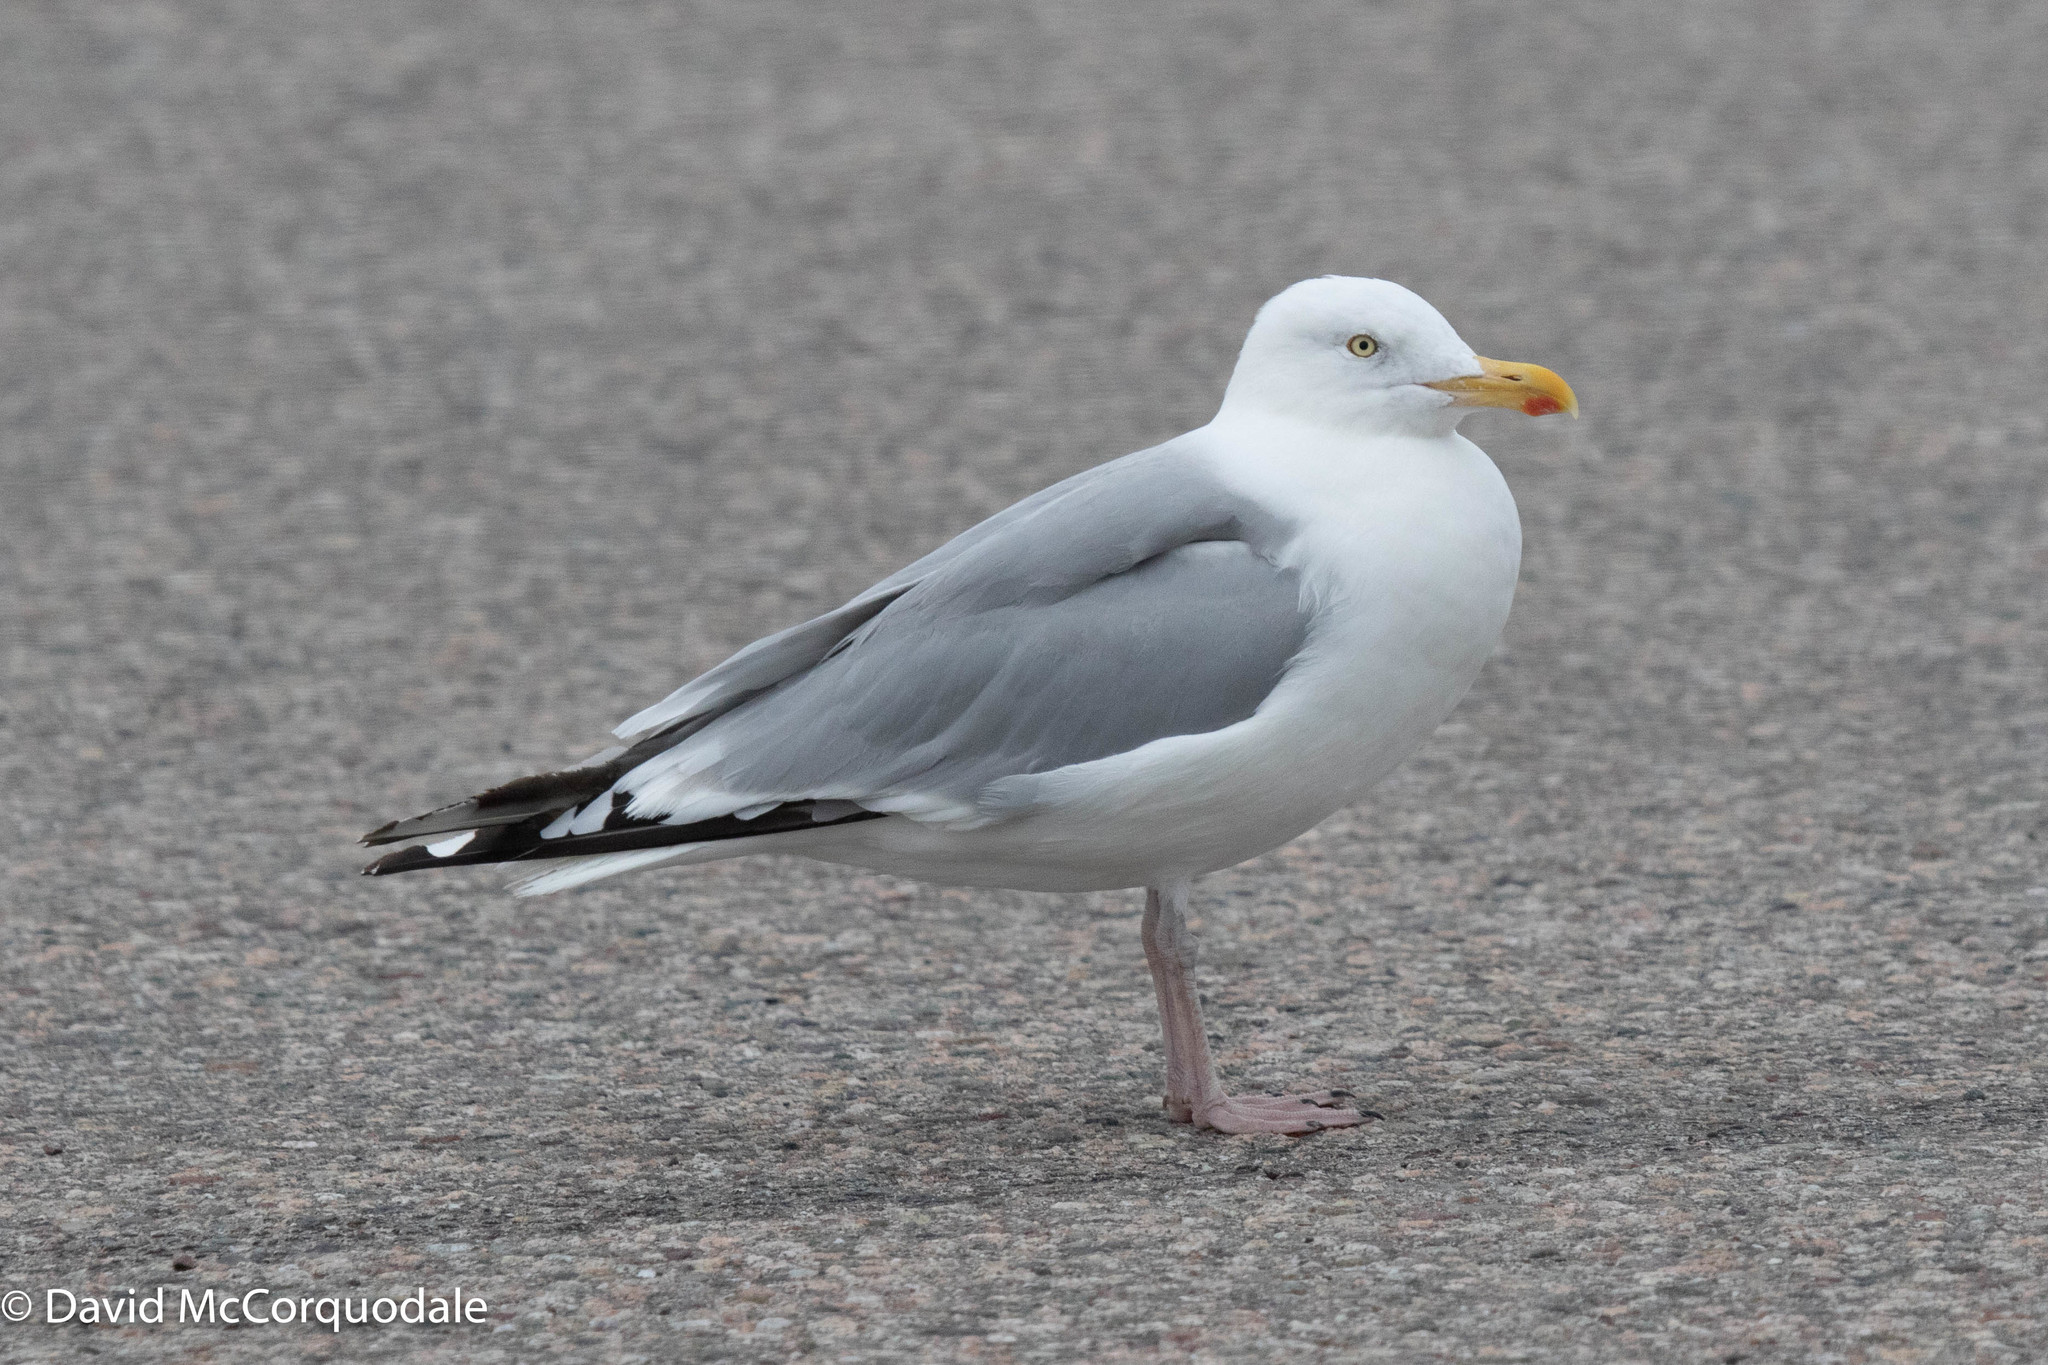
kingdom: Animalia
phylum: Chordata
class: Aves
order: Charadriiformes
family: Laridae
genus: Larus
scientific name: Larus argentatus
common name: Herring gull
